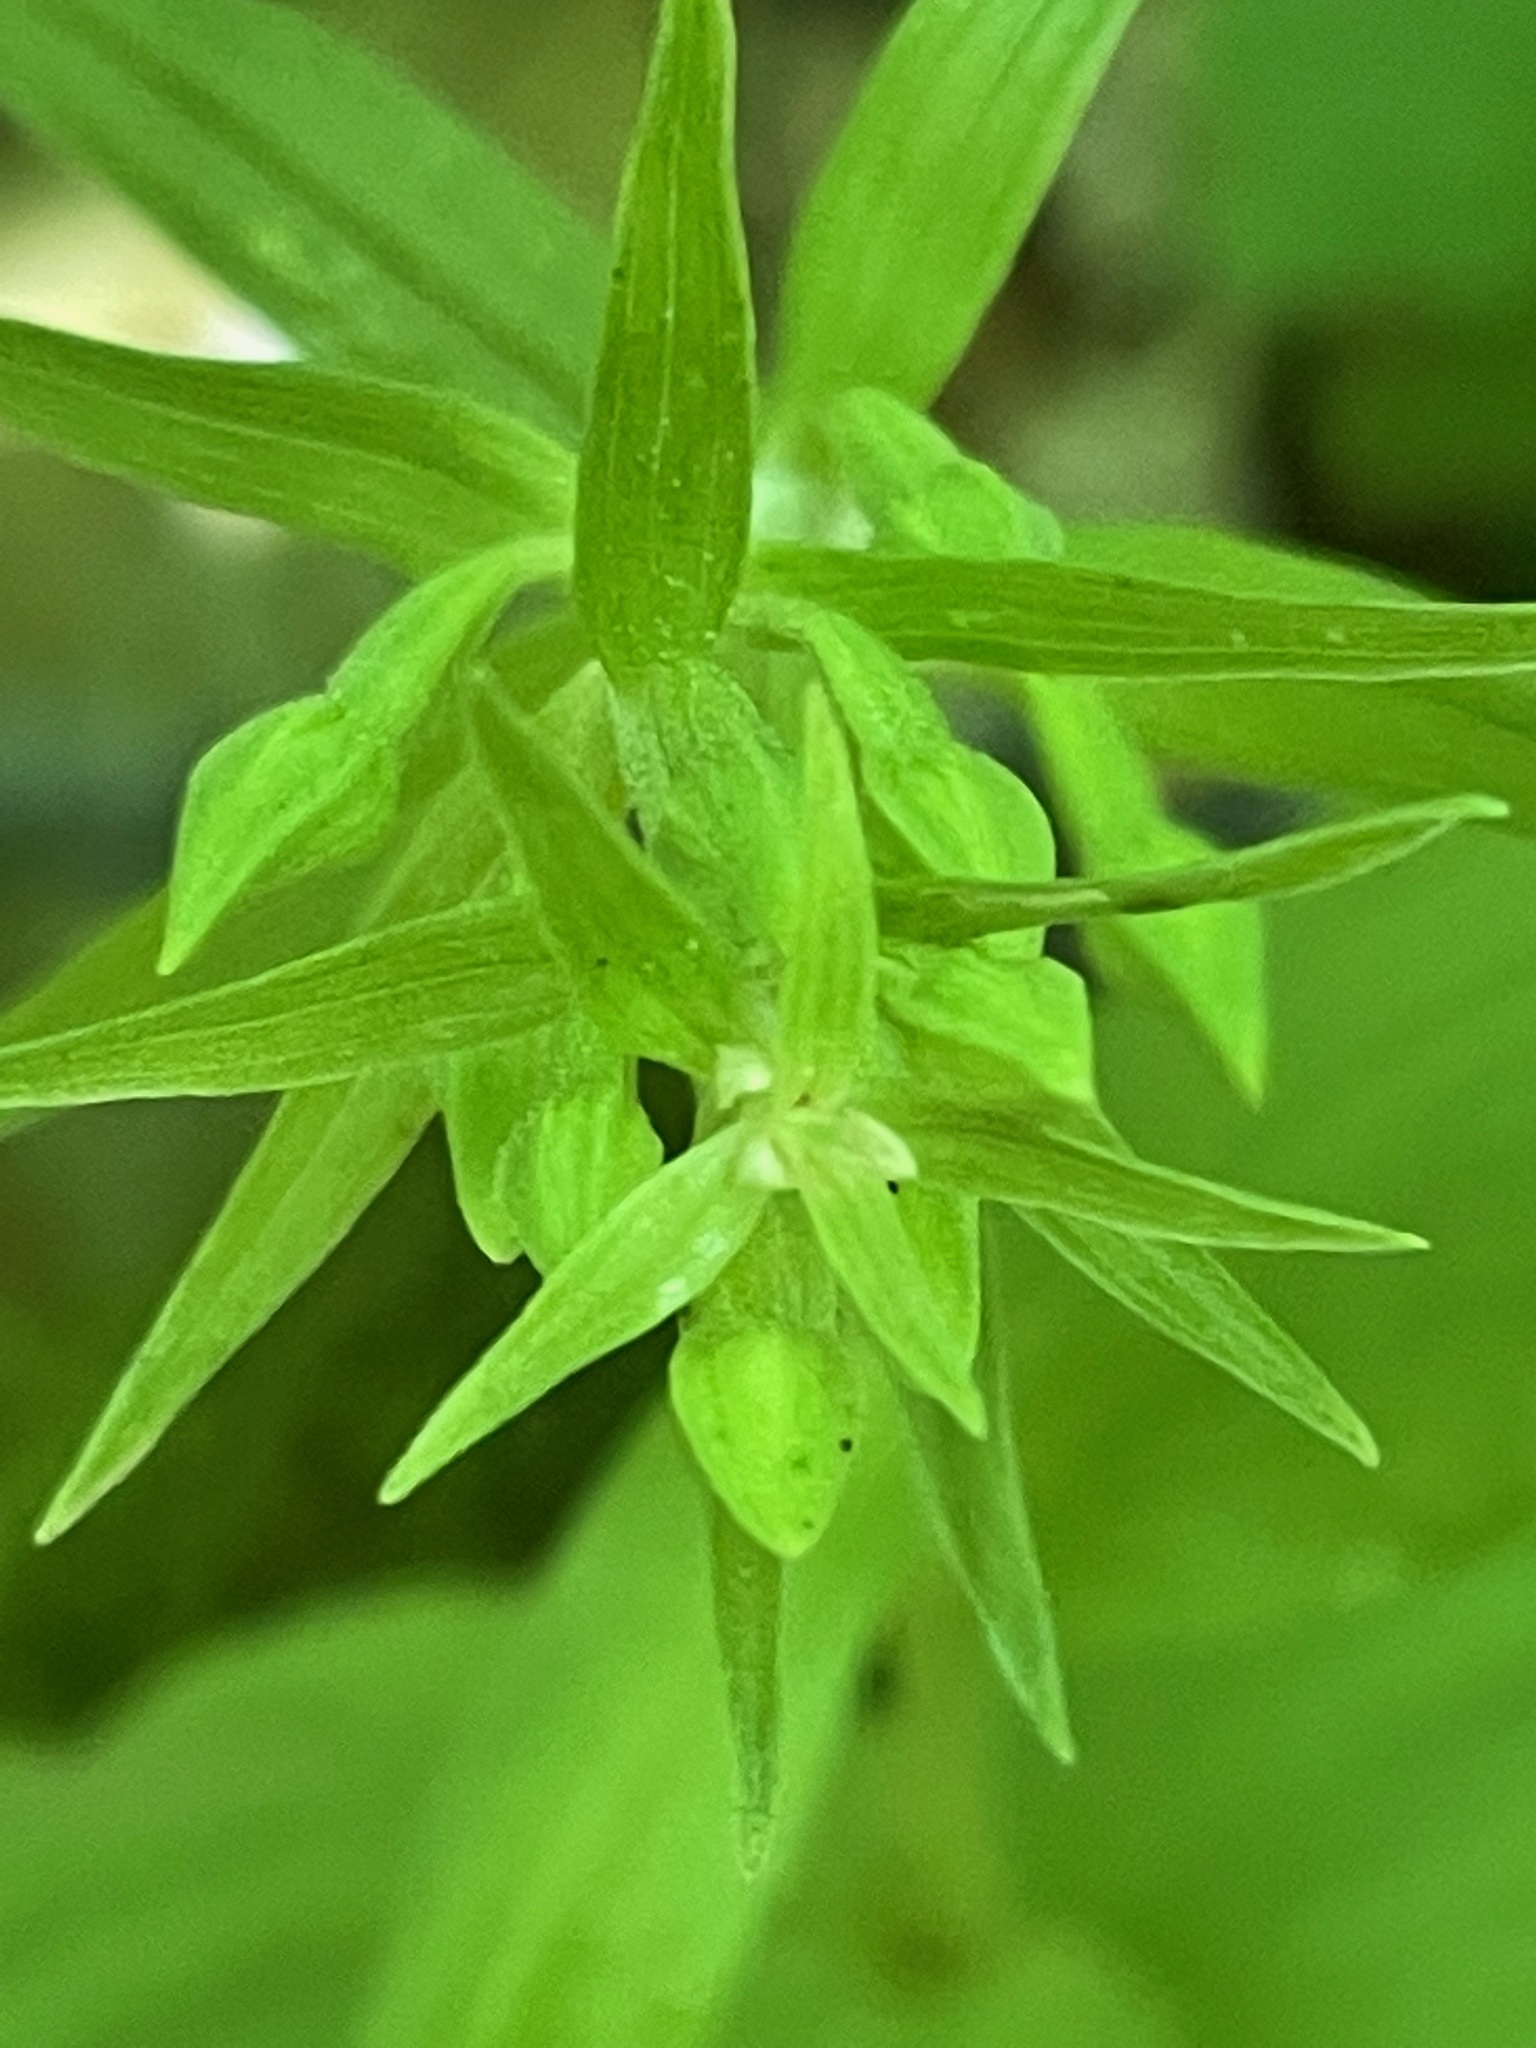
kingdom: Plantae
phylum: Tracheophyta
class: Liliopsida
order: Asparagales
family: Orchidaceae
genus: Epipactis
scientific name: Epipactis helleborine
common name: Broad-leaved helleborine
